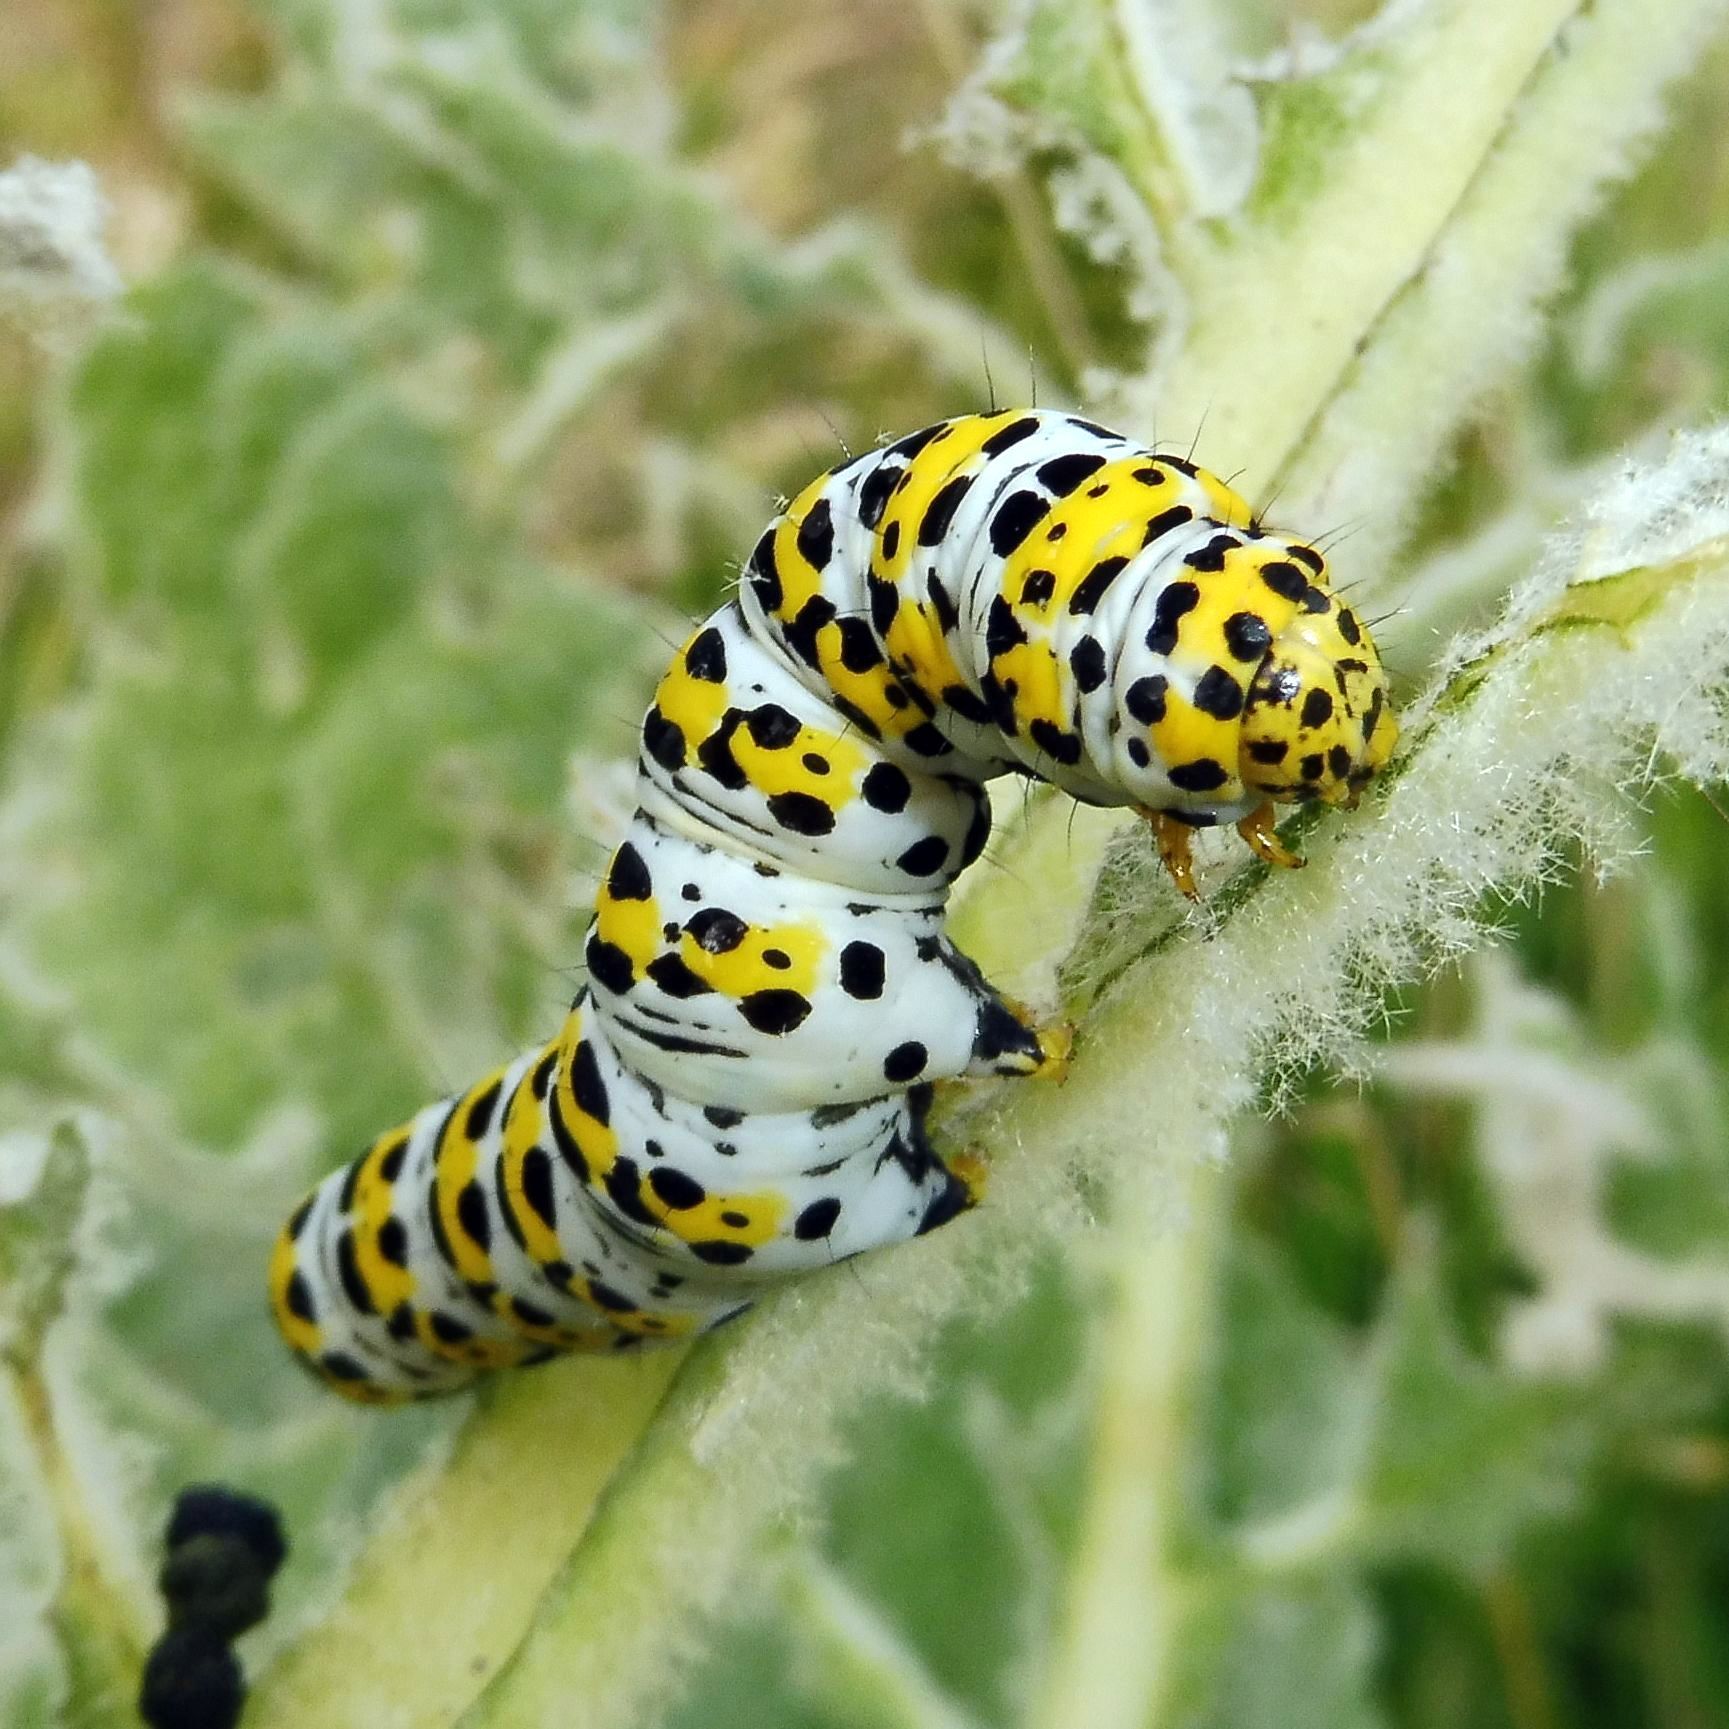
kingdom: Animalia
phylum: Arthropoda
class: Insecta
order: Lepidoptera
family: Noctuidae
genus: Cucullia
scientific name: Cucullia verbasci
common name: Mullein
